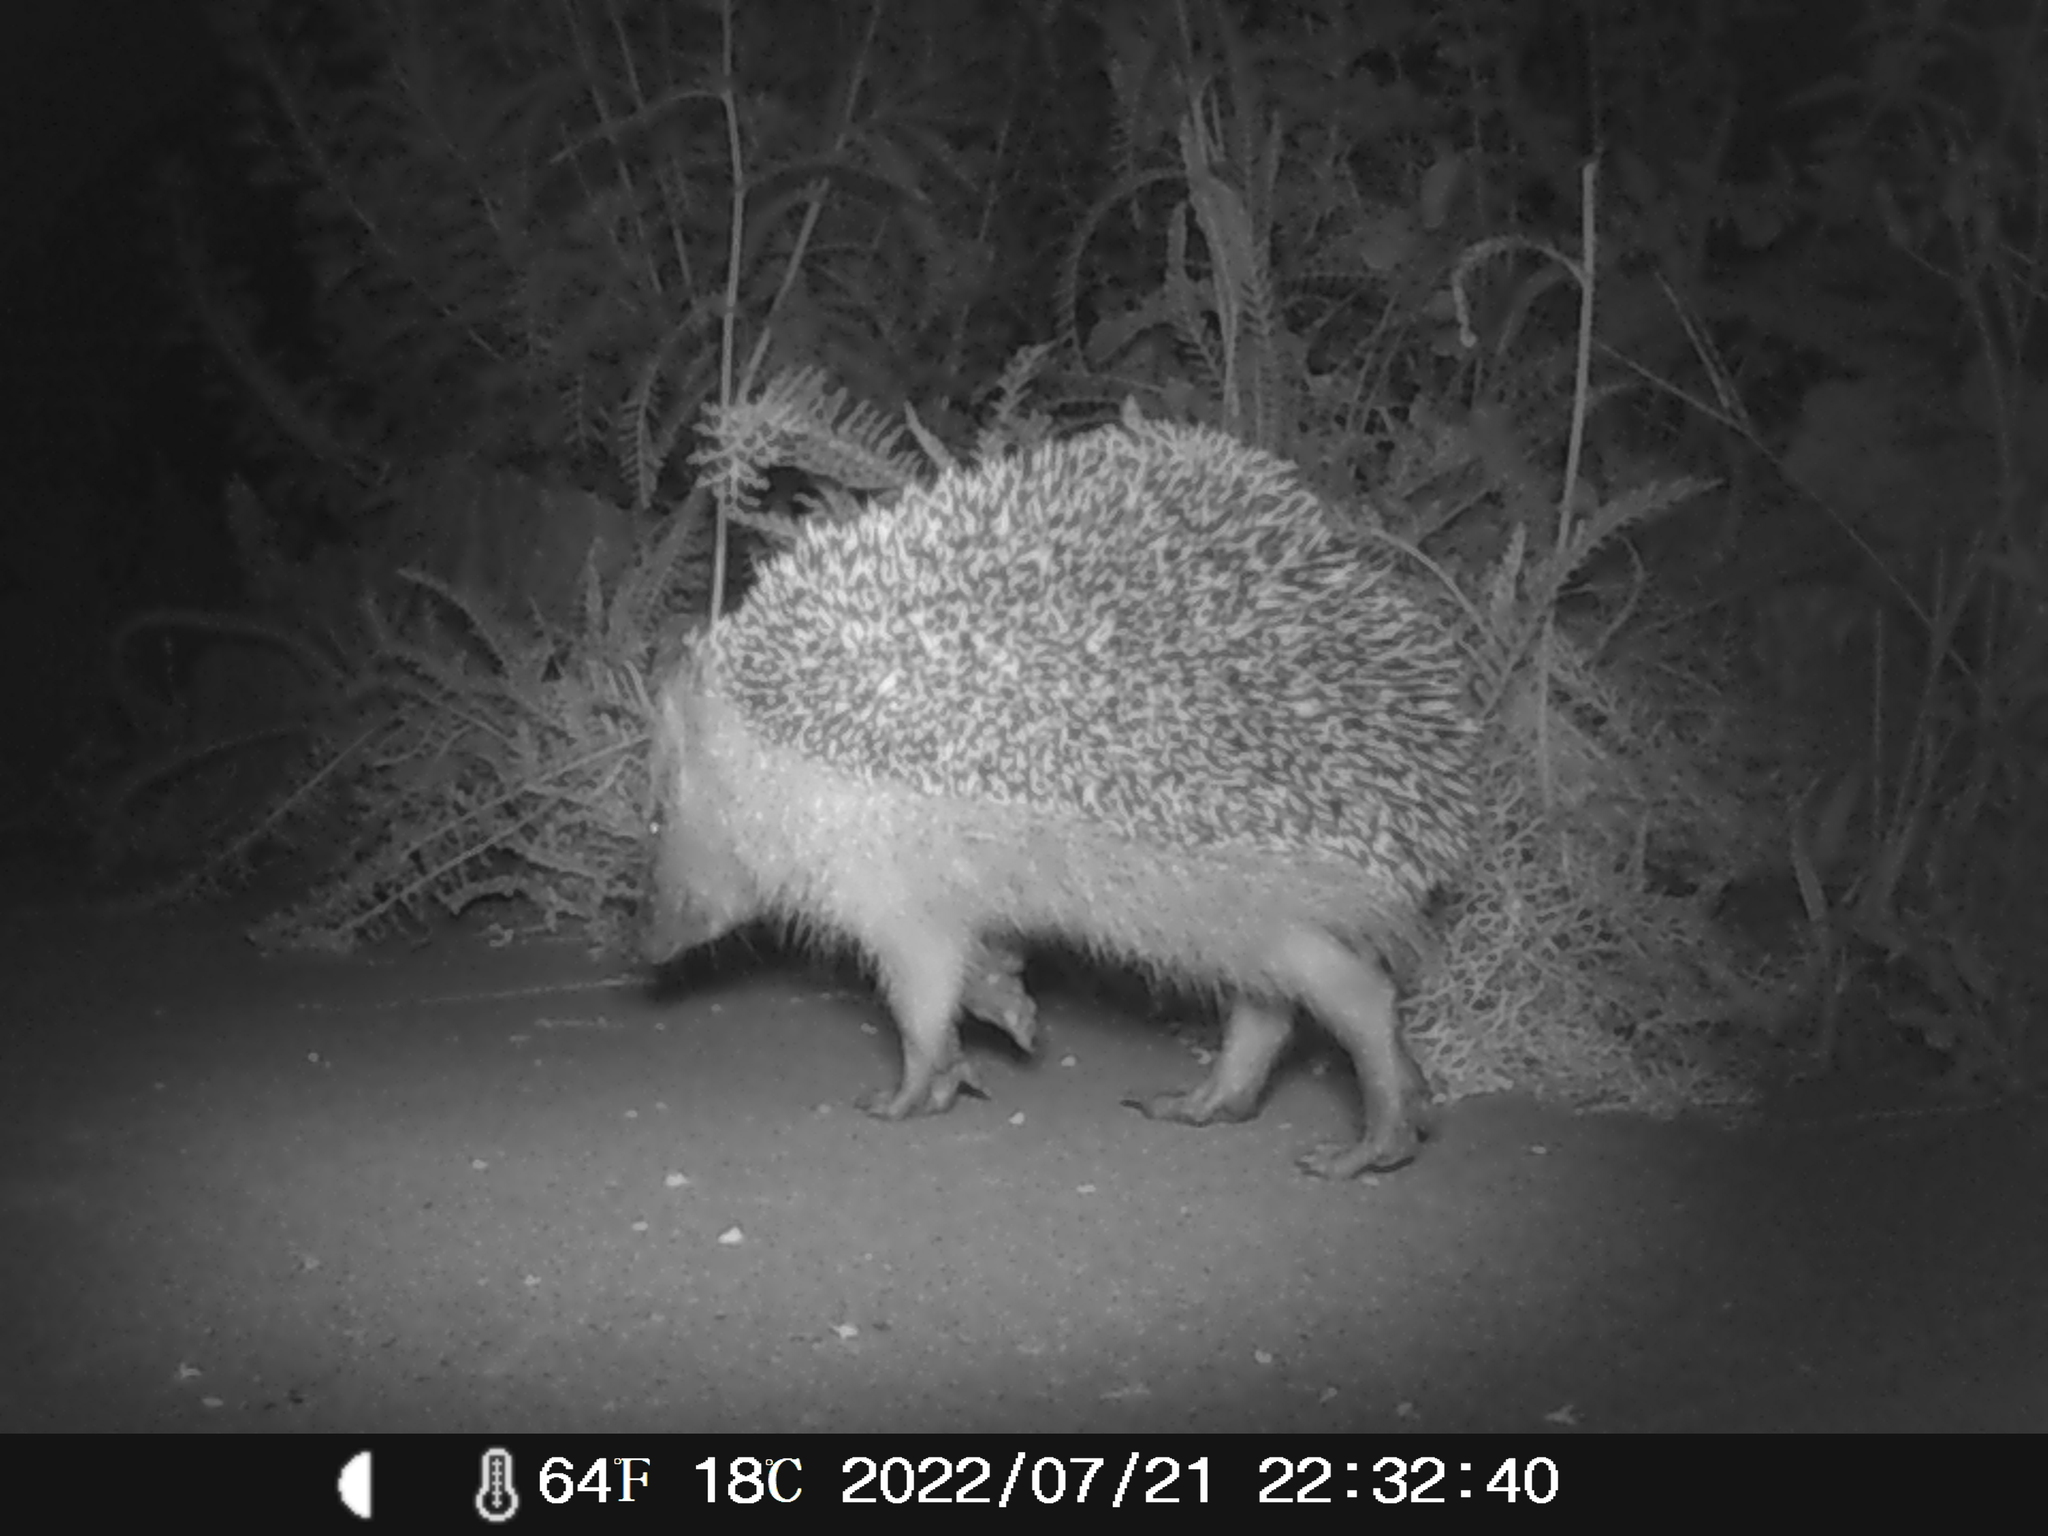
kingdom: Animalia
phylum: Chordata
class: Mammalia
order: Erinaceomorpha
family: Erinaceidae
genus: Erinaceus
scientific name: Erinaceus europaeus
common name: West european hedgehog
